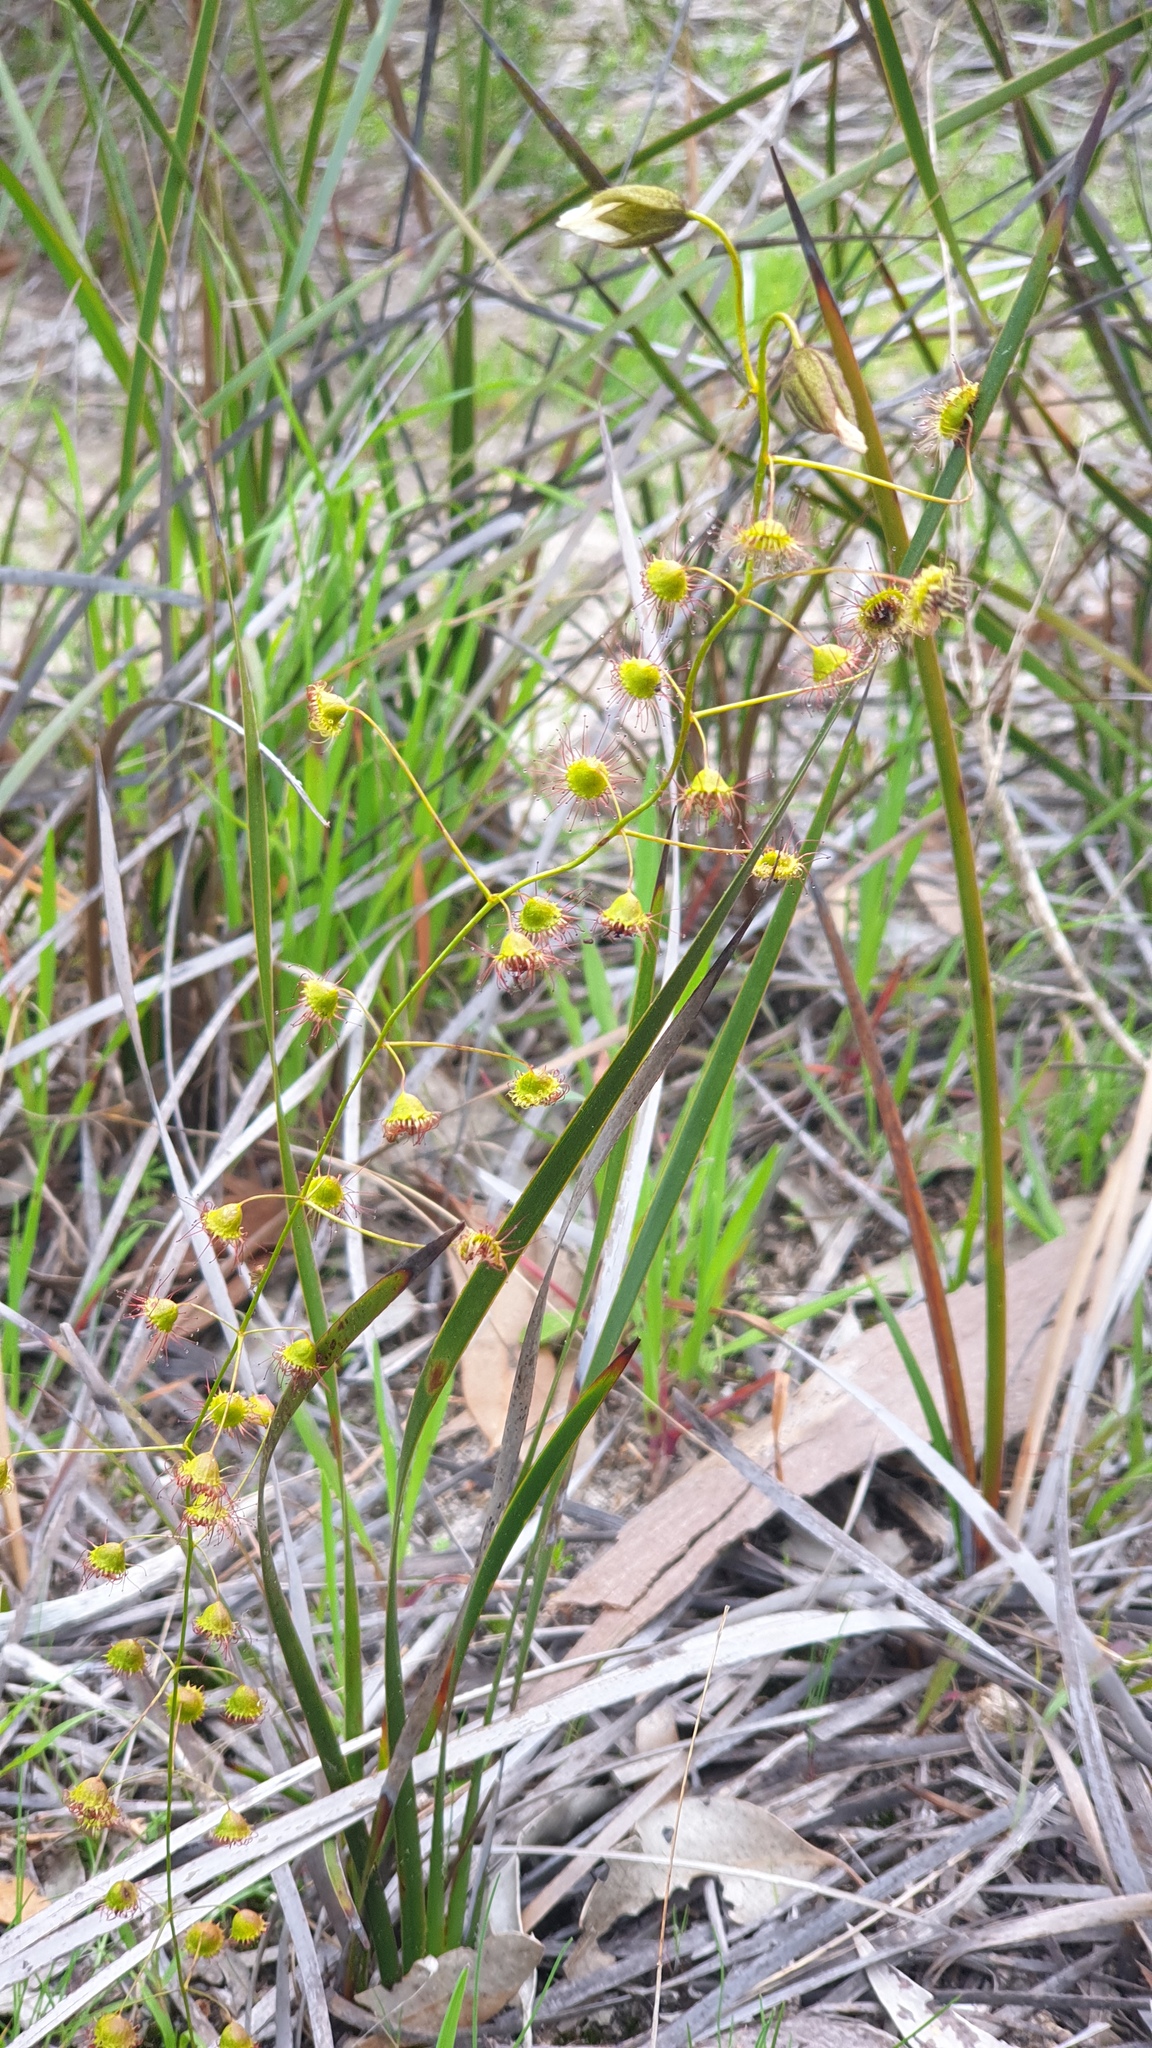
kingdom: Plantae
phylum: Tracheophyta
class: Magnoliopsida
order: Caryophyllales
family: Droseraceae
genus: Drosera
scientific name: Drosera planchonii
